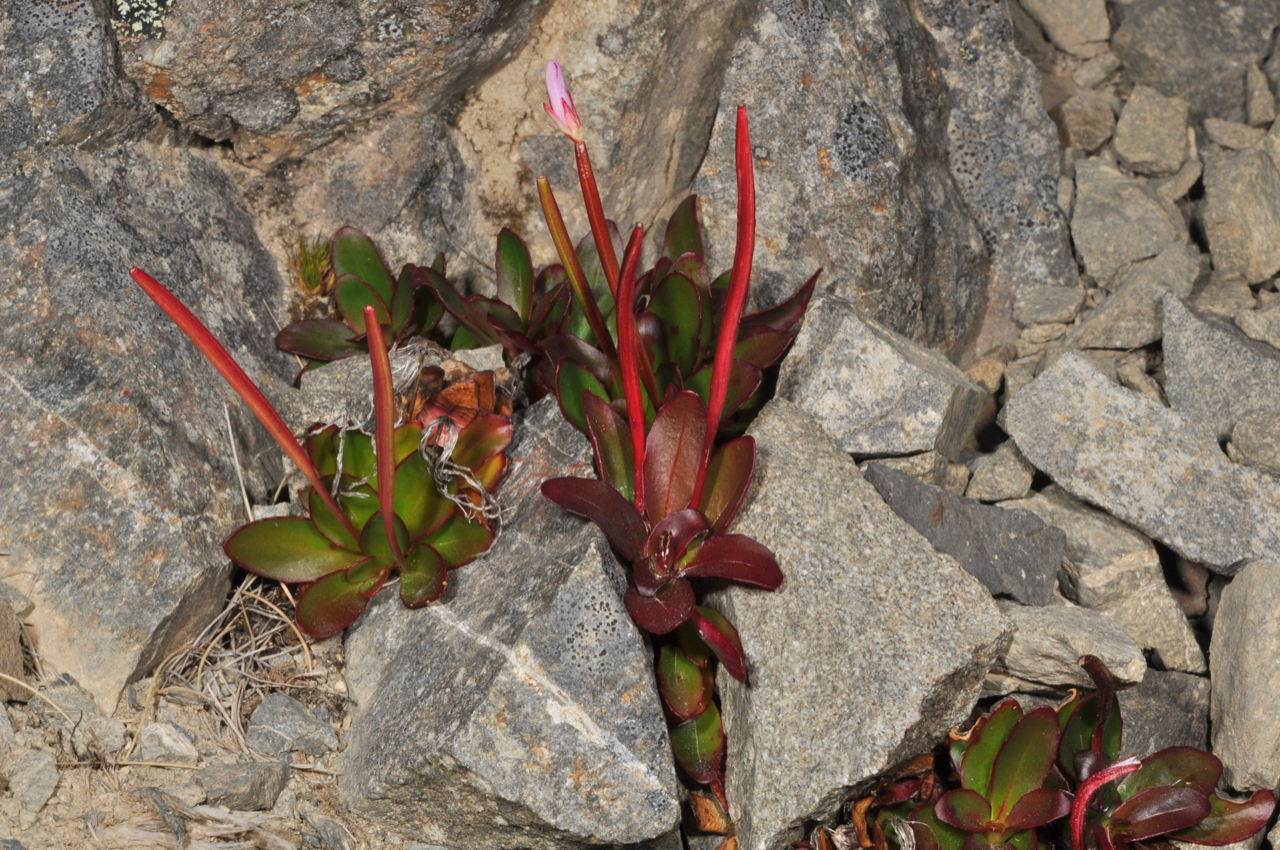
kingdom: Plantae
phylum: Tracheophyta
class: Magnoliopsida
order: Myrtales
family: Onagraceae
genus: Epilobium
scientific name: Epilobium crassum
